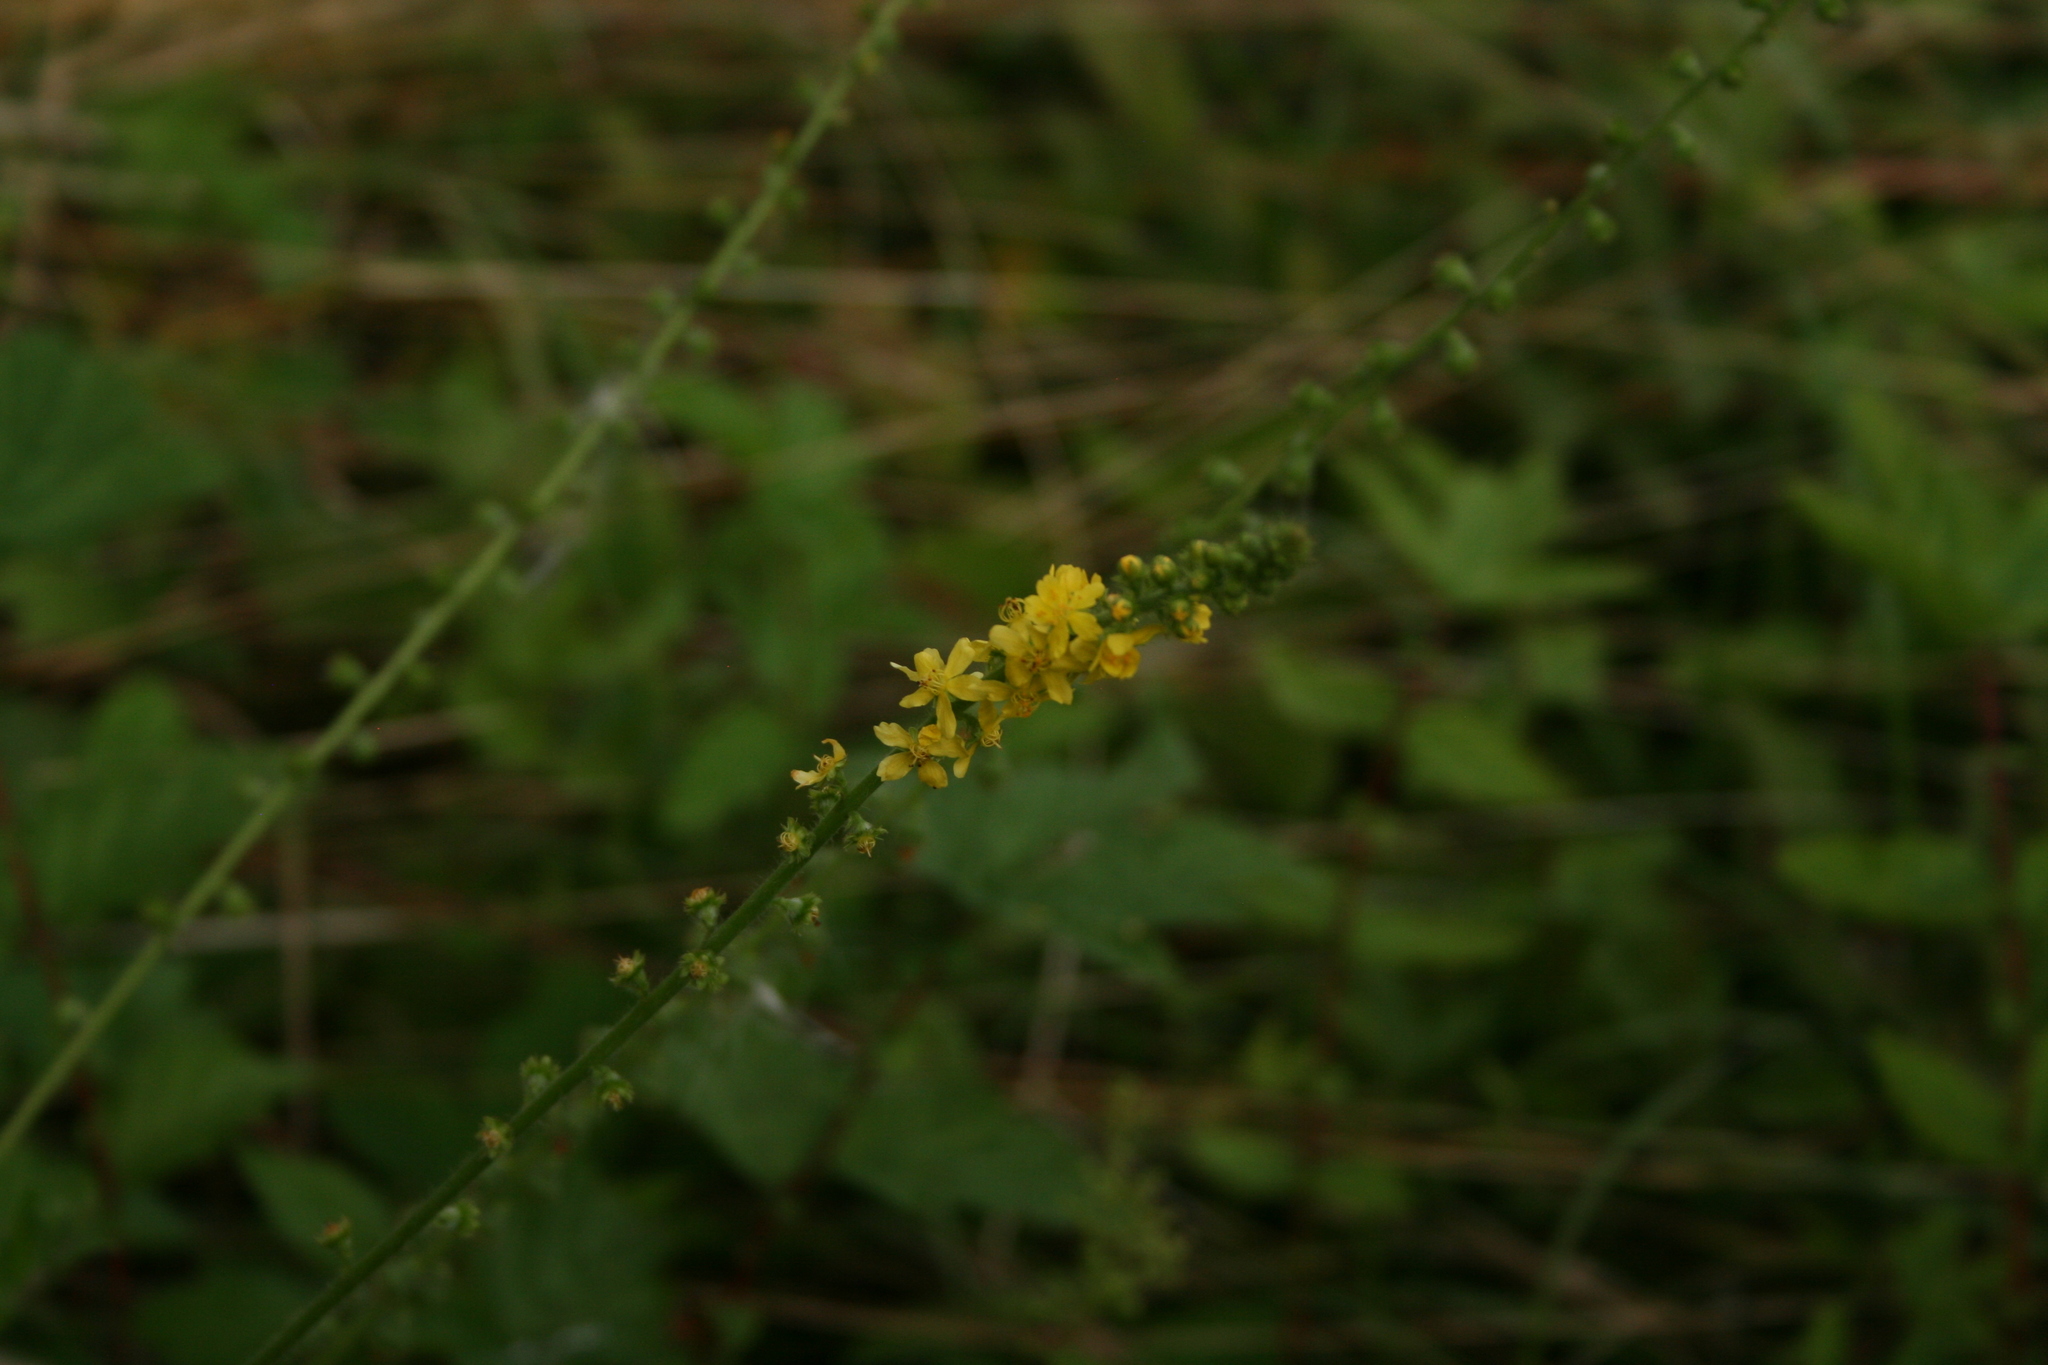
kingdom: Plantae
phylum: Tracheophyta
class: Magnoliopsida
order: Rosales
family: Rosaceae
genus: Agrimonia
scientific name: Agrimonia eupatoria
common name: Agrimony
